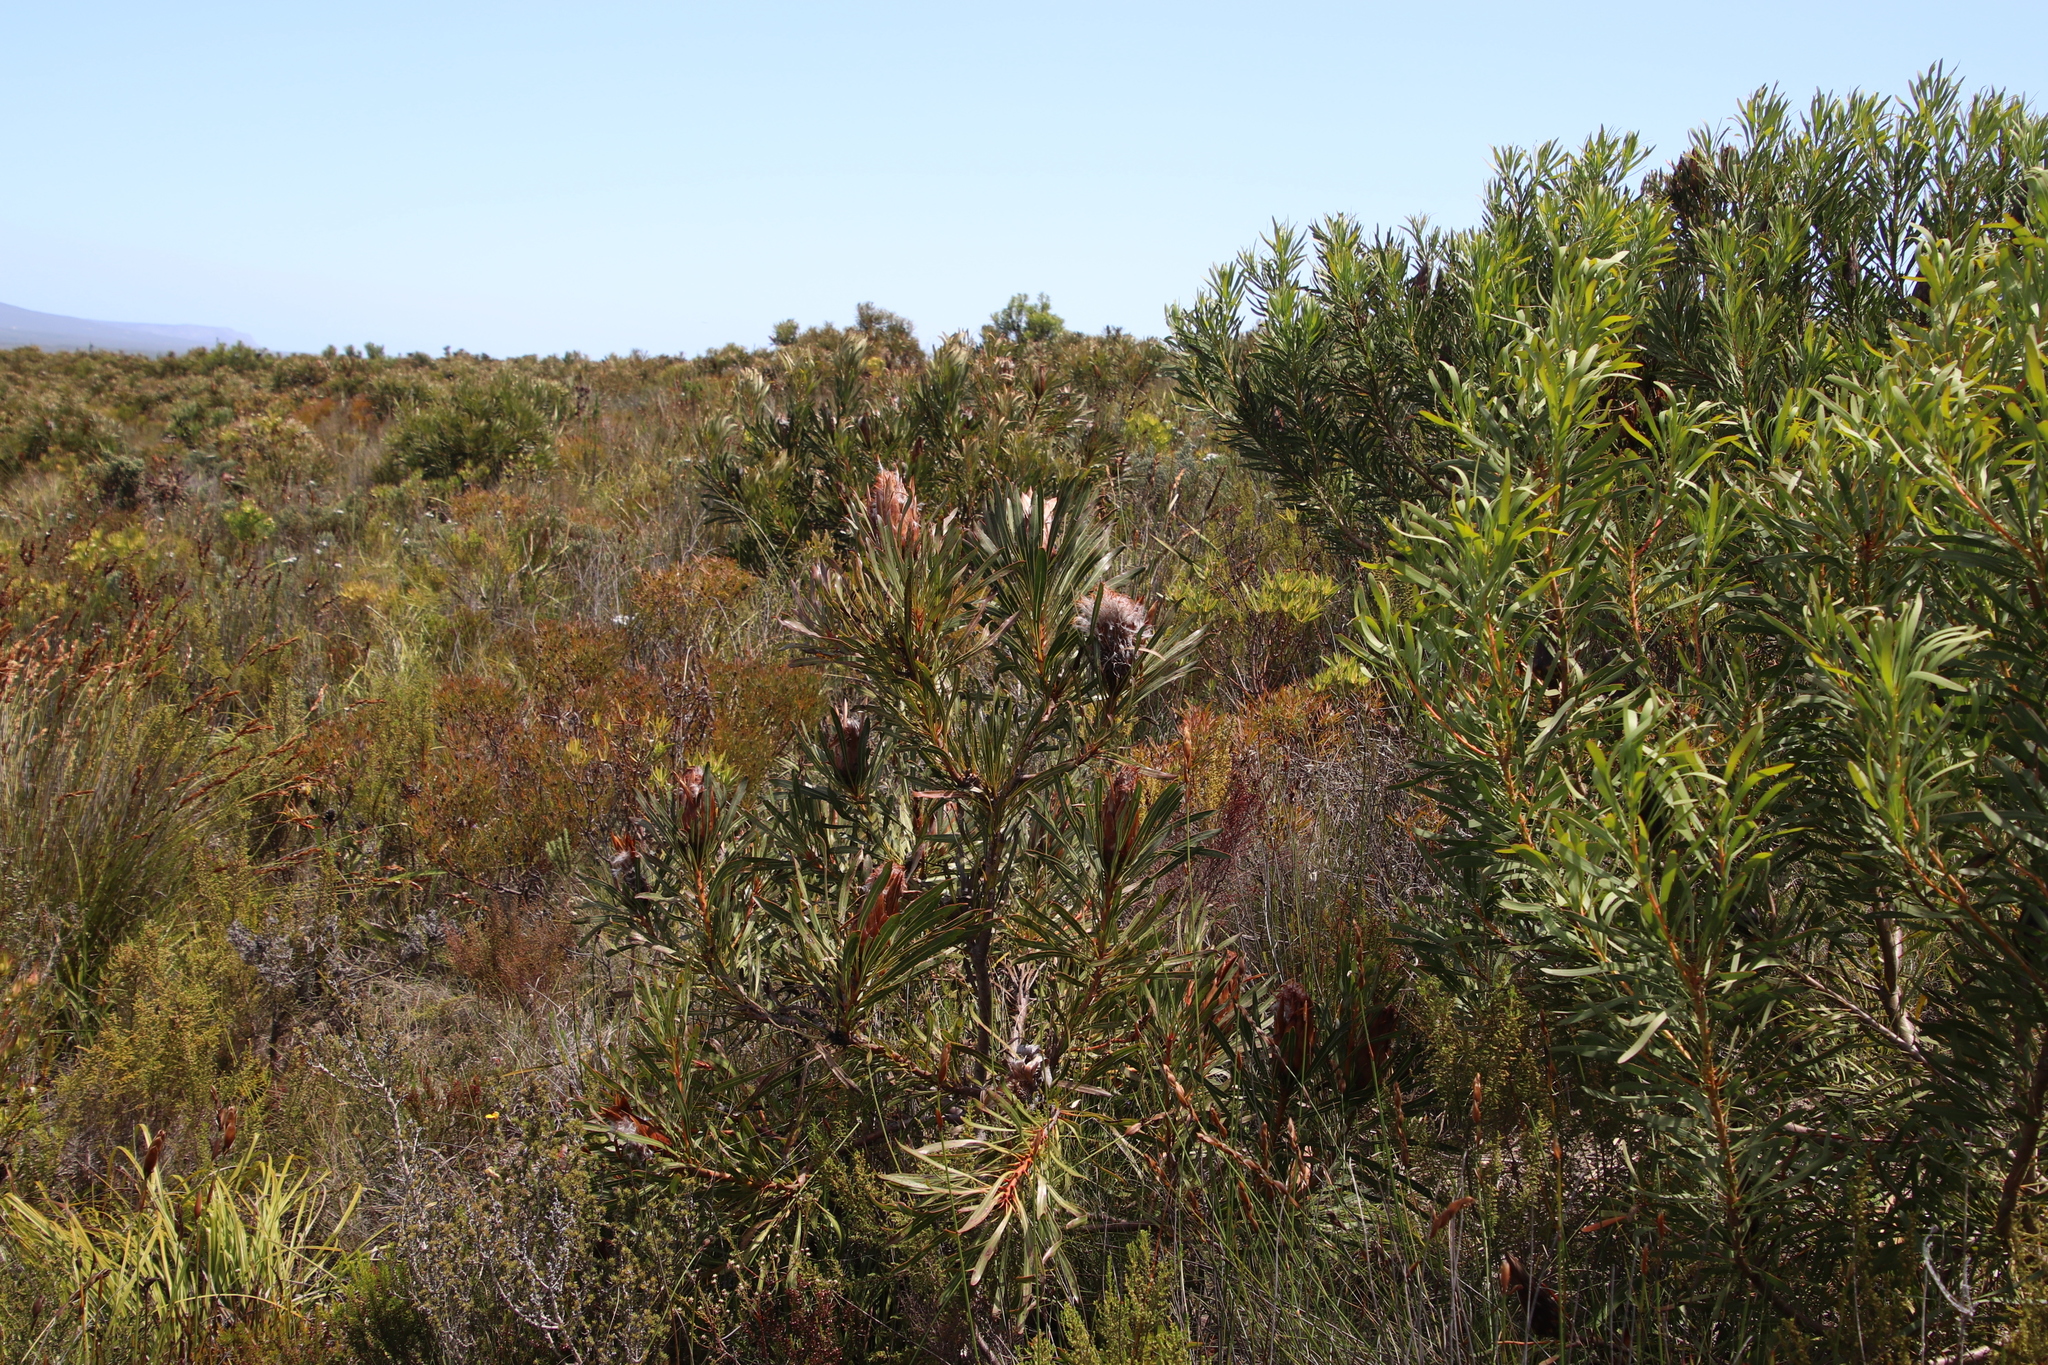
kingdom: Plantae
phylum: Tracheophyta
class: Magnoliopsida
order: Proteales
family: Proteaceae
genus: Protea
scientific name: Protea longifolia
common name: Long-leaf sugarbush
